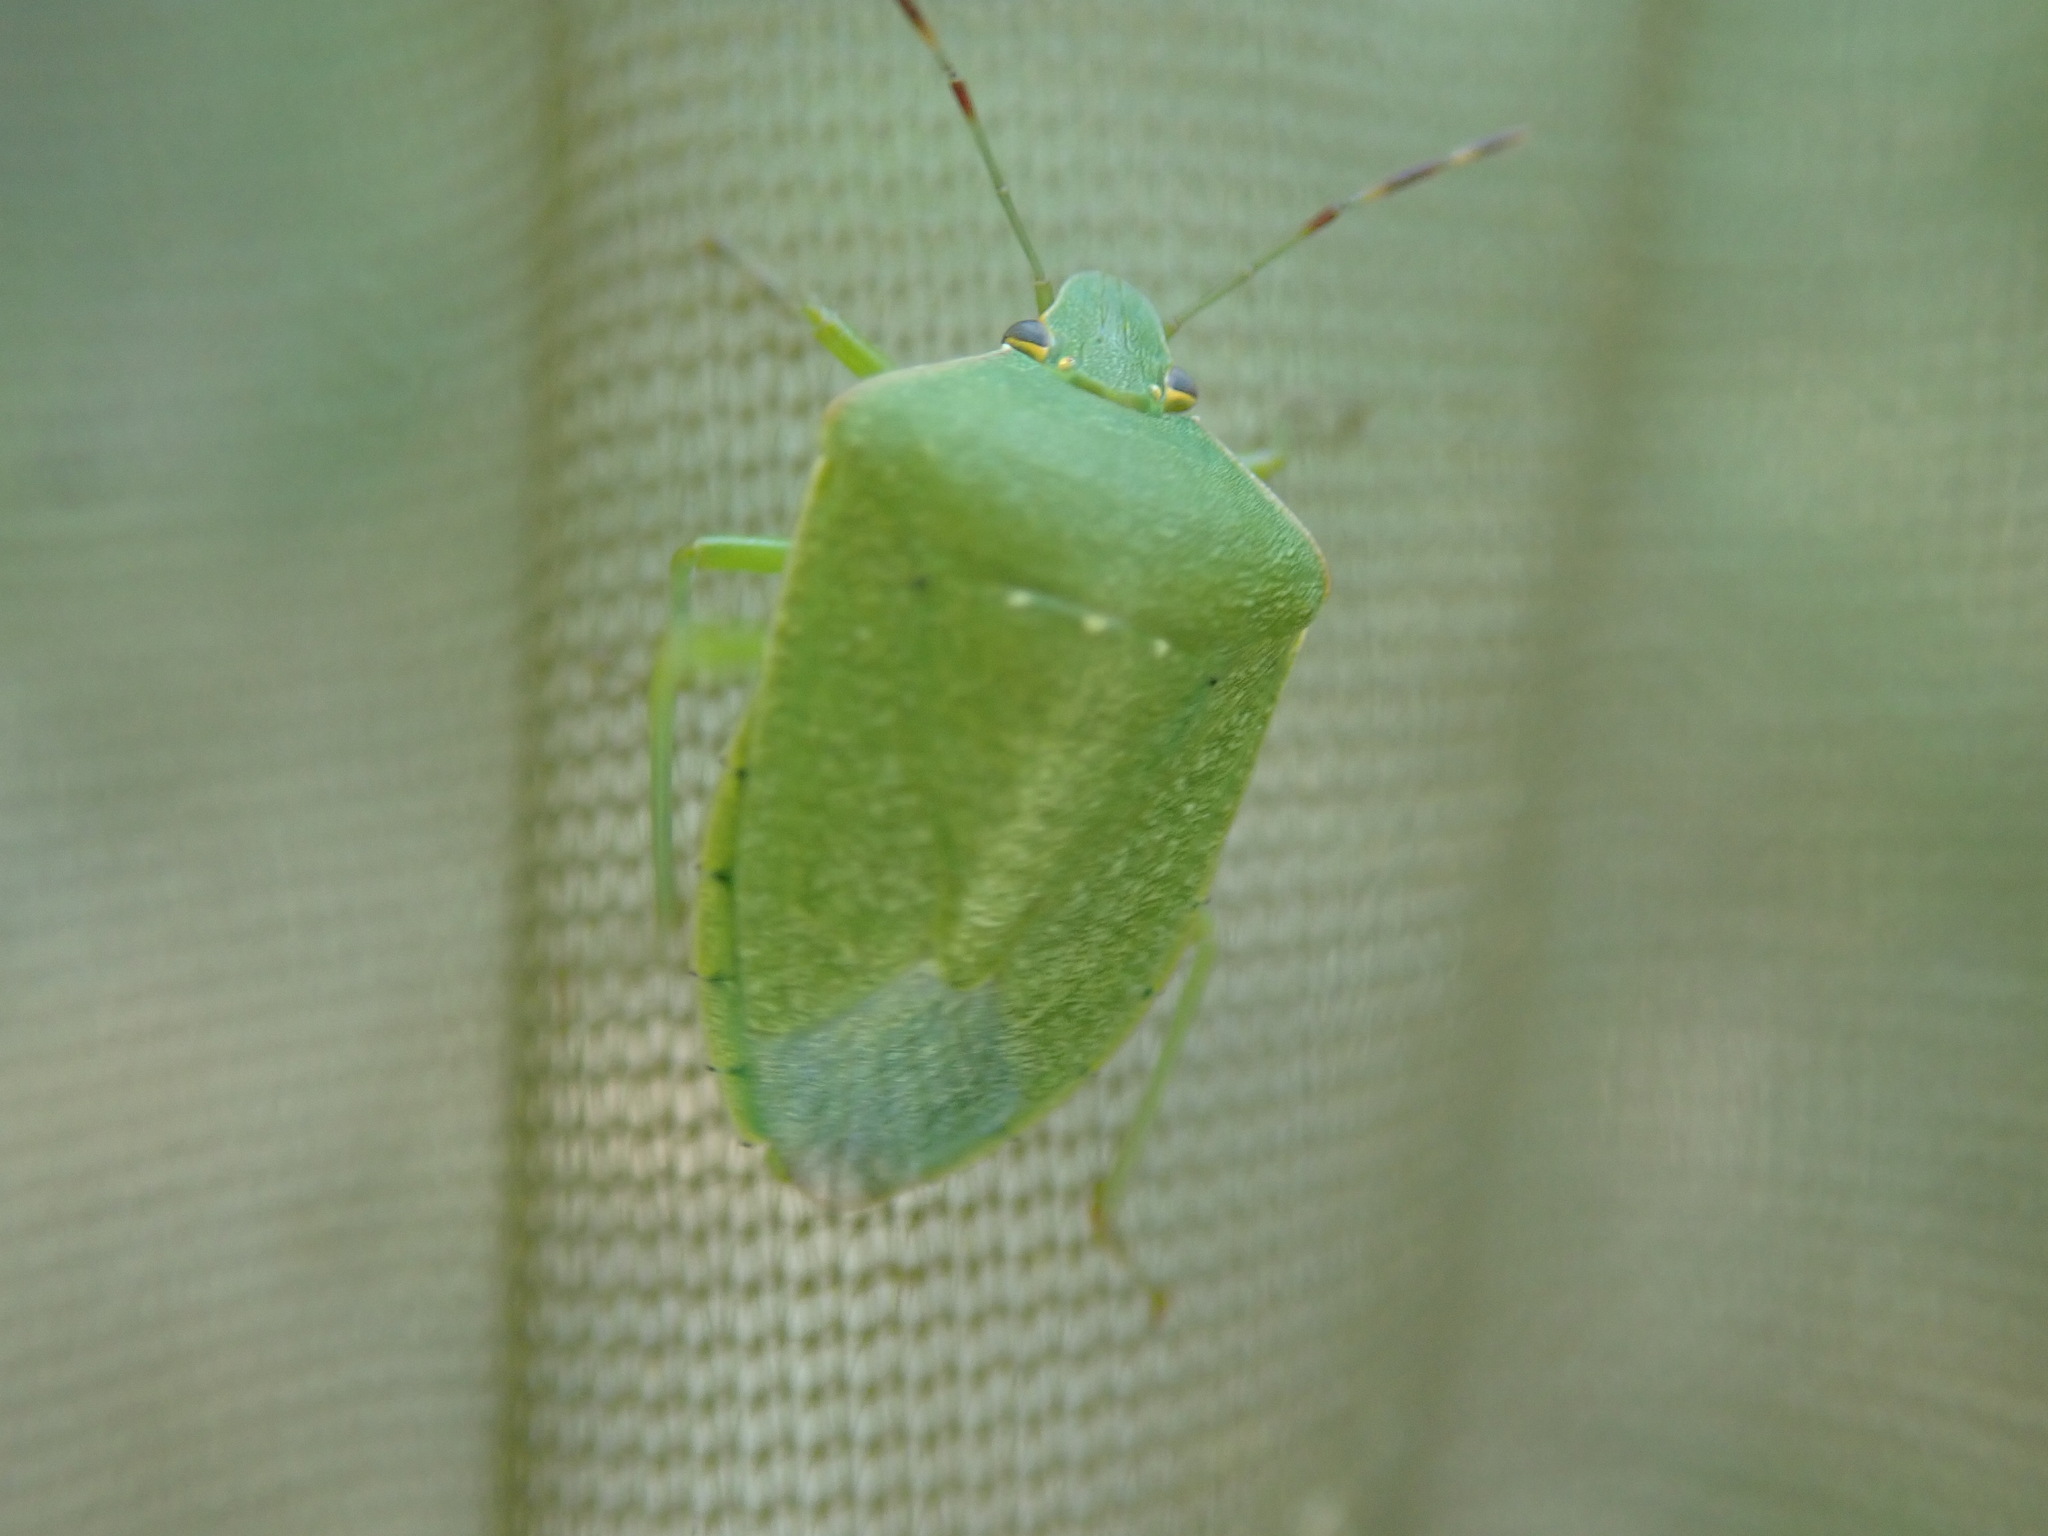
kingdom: Animalia
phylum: Arthropoda
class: Insecta
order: Hemiptera
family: Pentatomidae
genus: Nezara
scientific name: Nezara viridula
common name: Southern green stink bug
